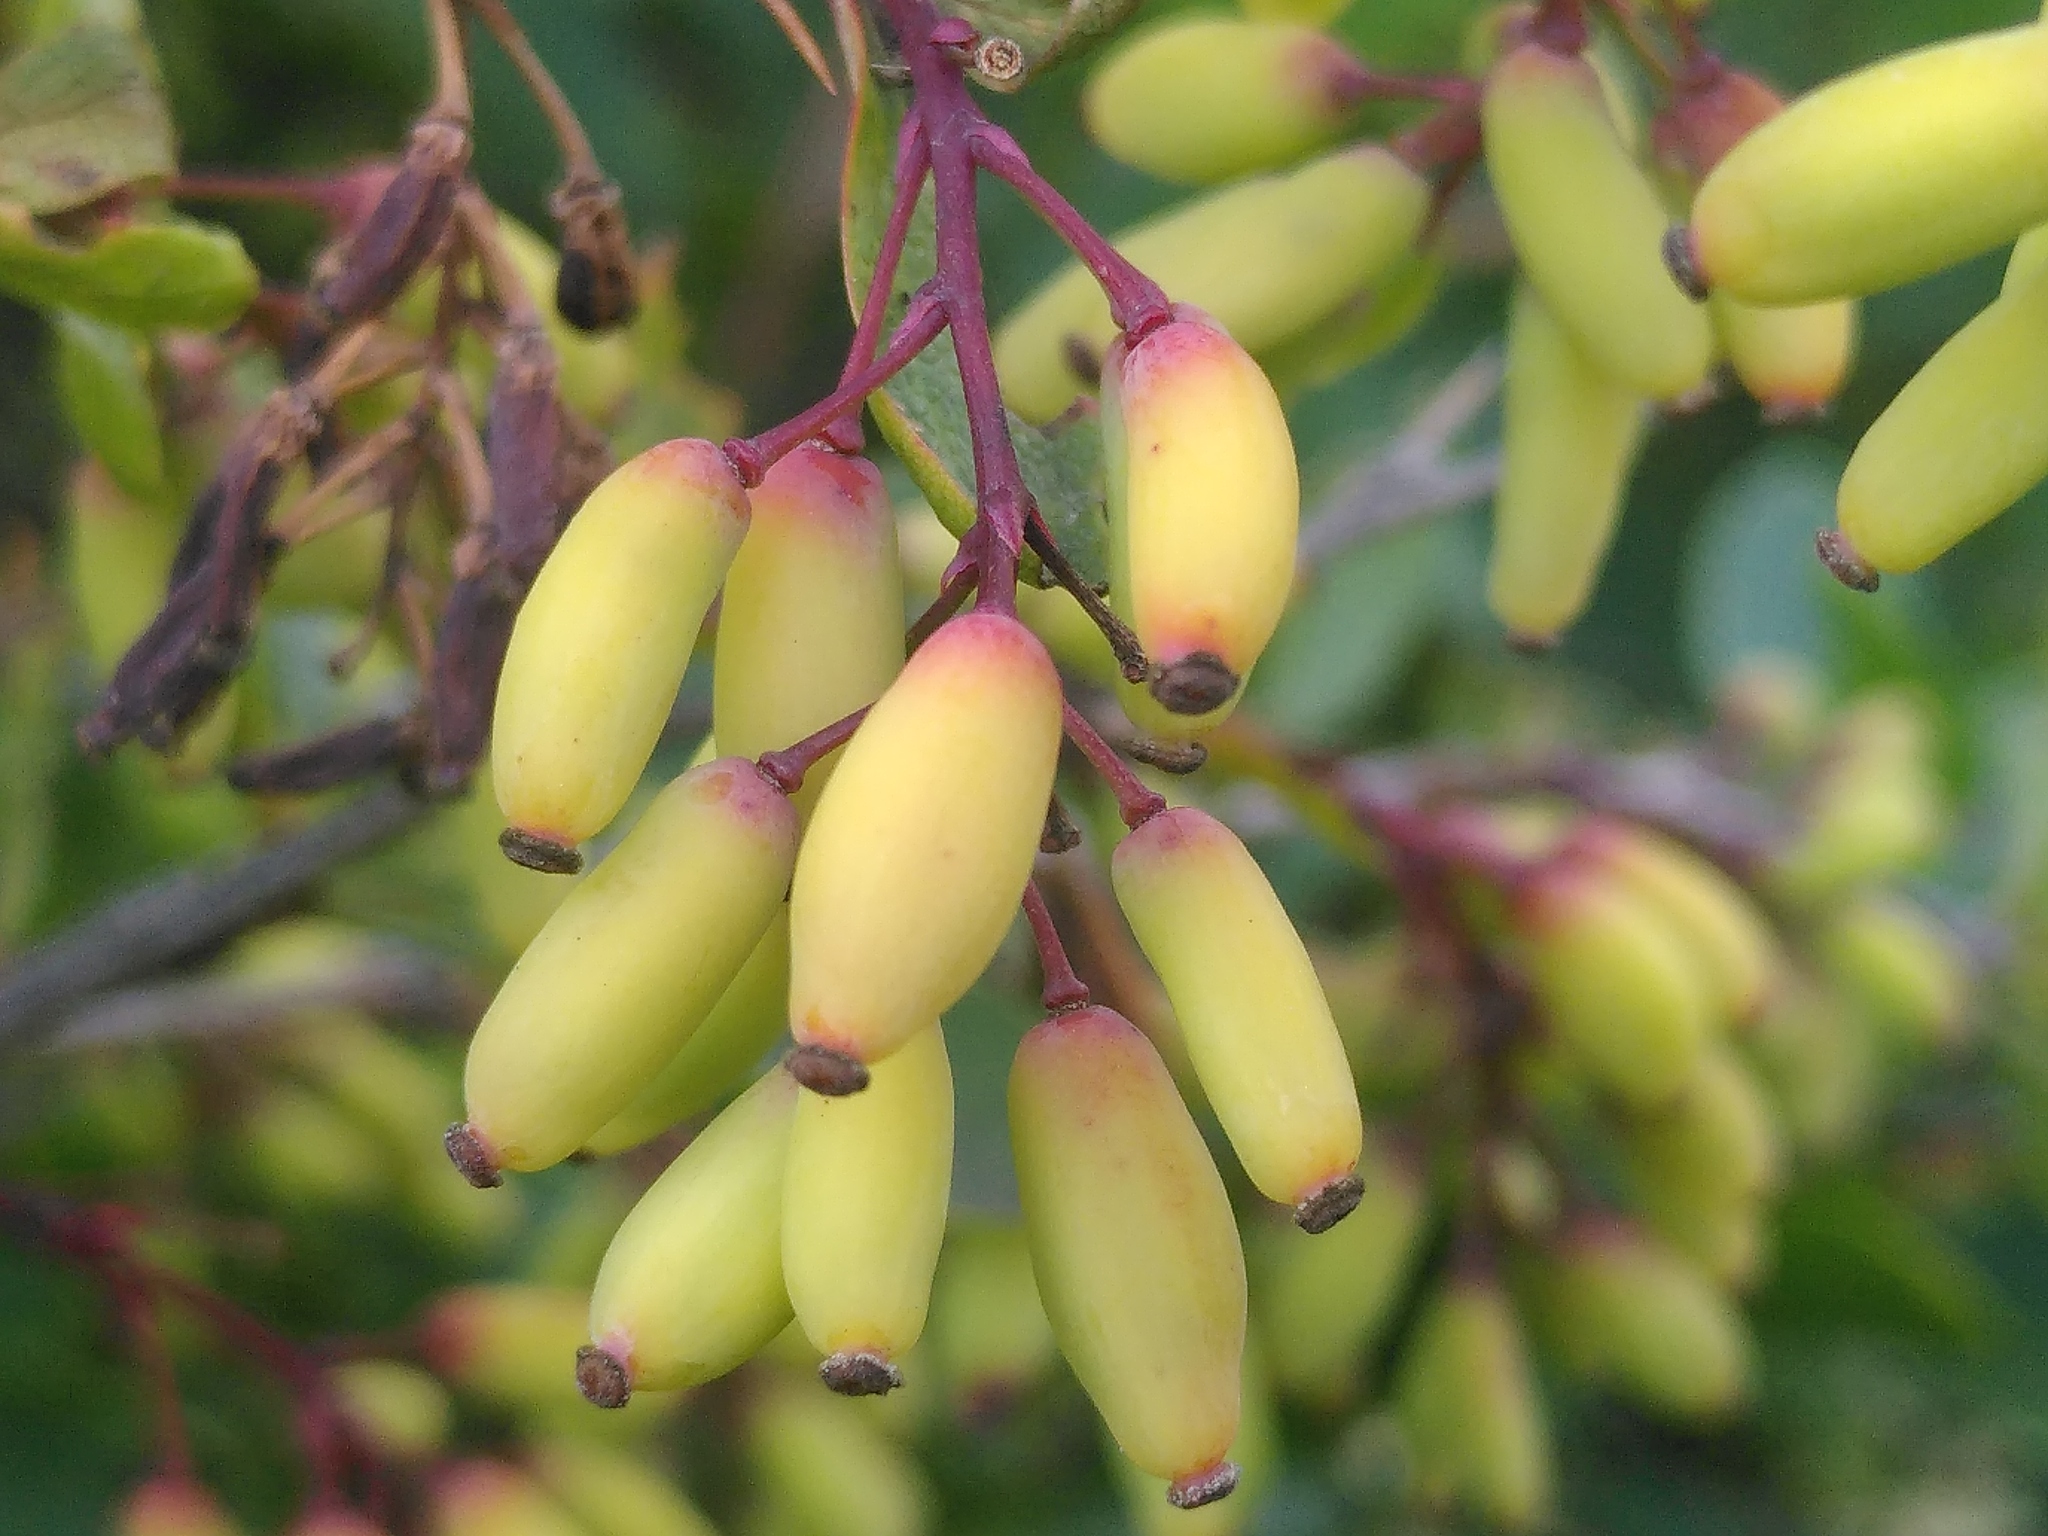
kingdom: Plantae
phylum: Tracheophyta
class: Magnoliopsida
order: Ranunculales
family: Berberidaceae
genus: Berberis
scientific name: Berberis vulgaris
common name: Barberry
